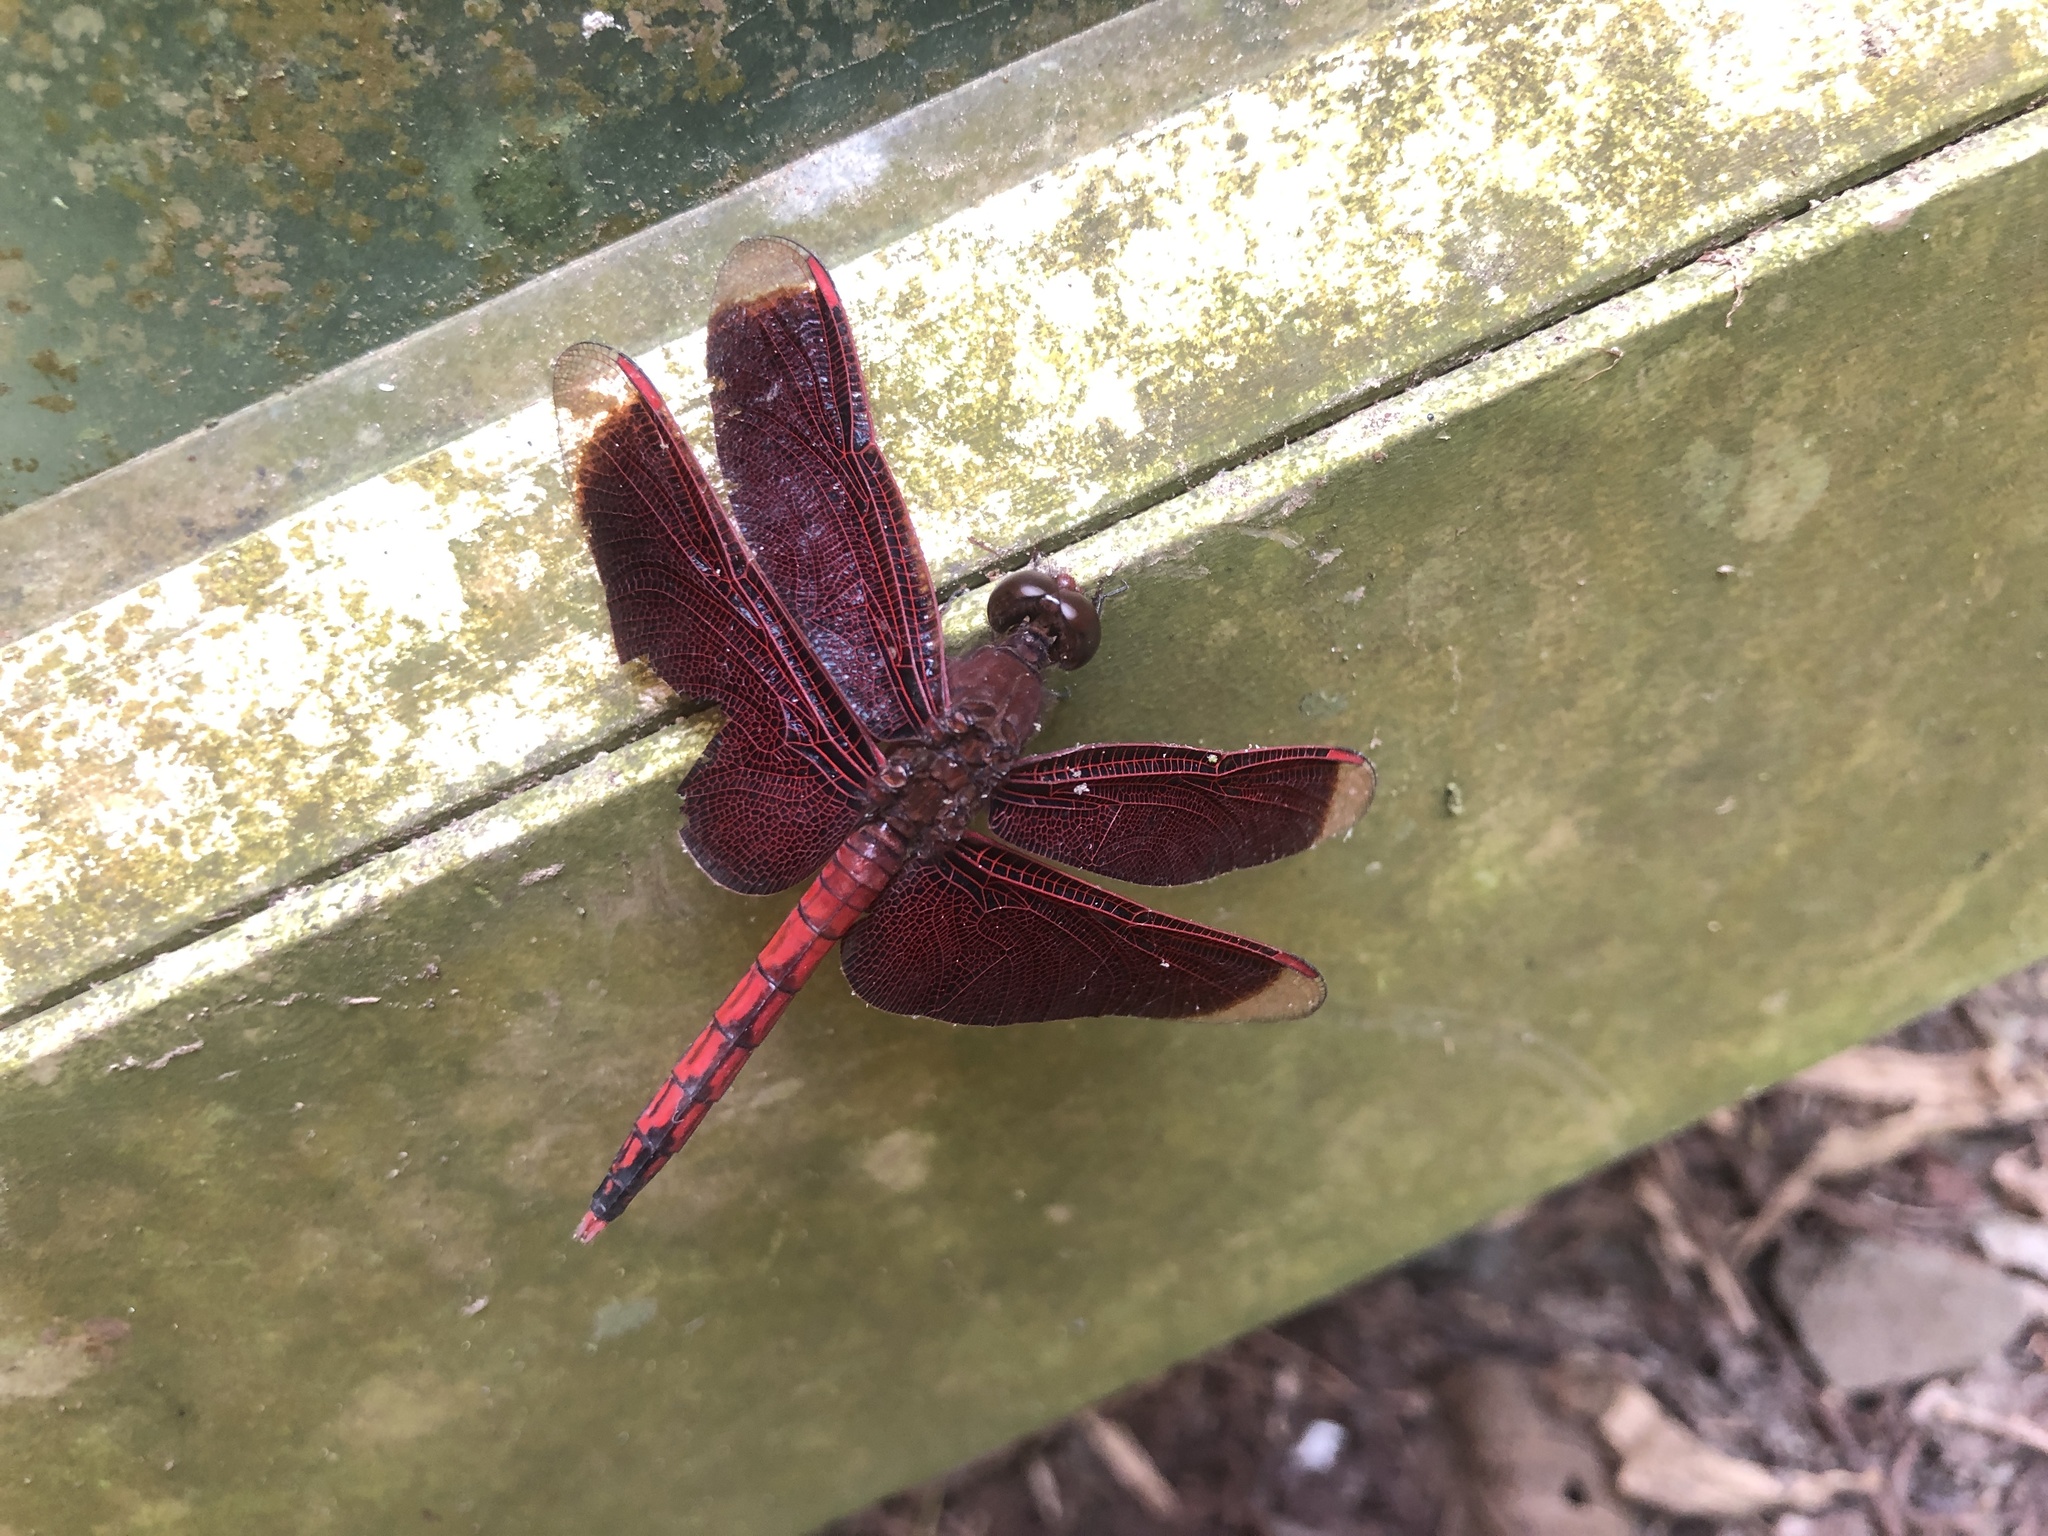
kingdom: Animalia
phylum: Arthropoda
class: Insecta
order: Odonata
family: Libellulidae
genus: Neurothemis
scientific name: Neurothemis taiwanensis
